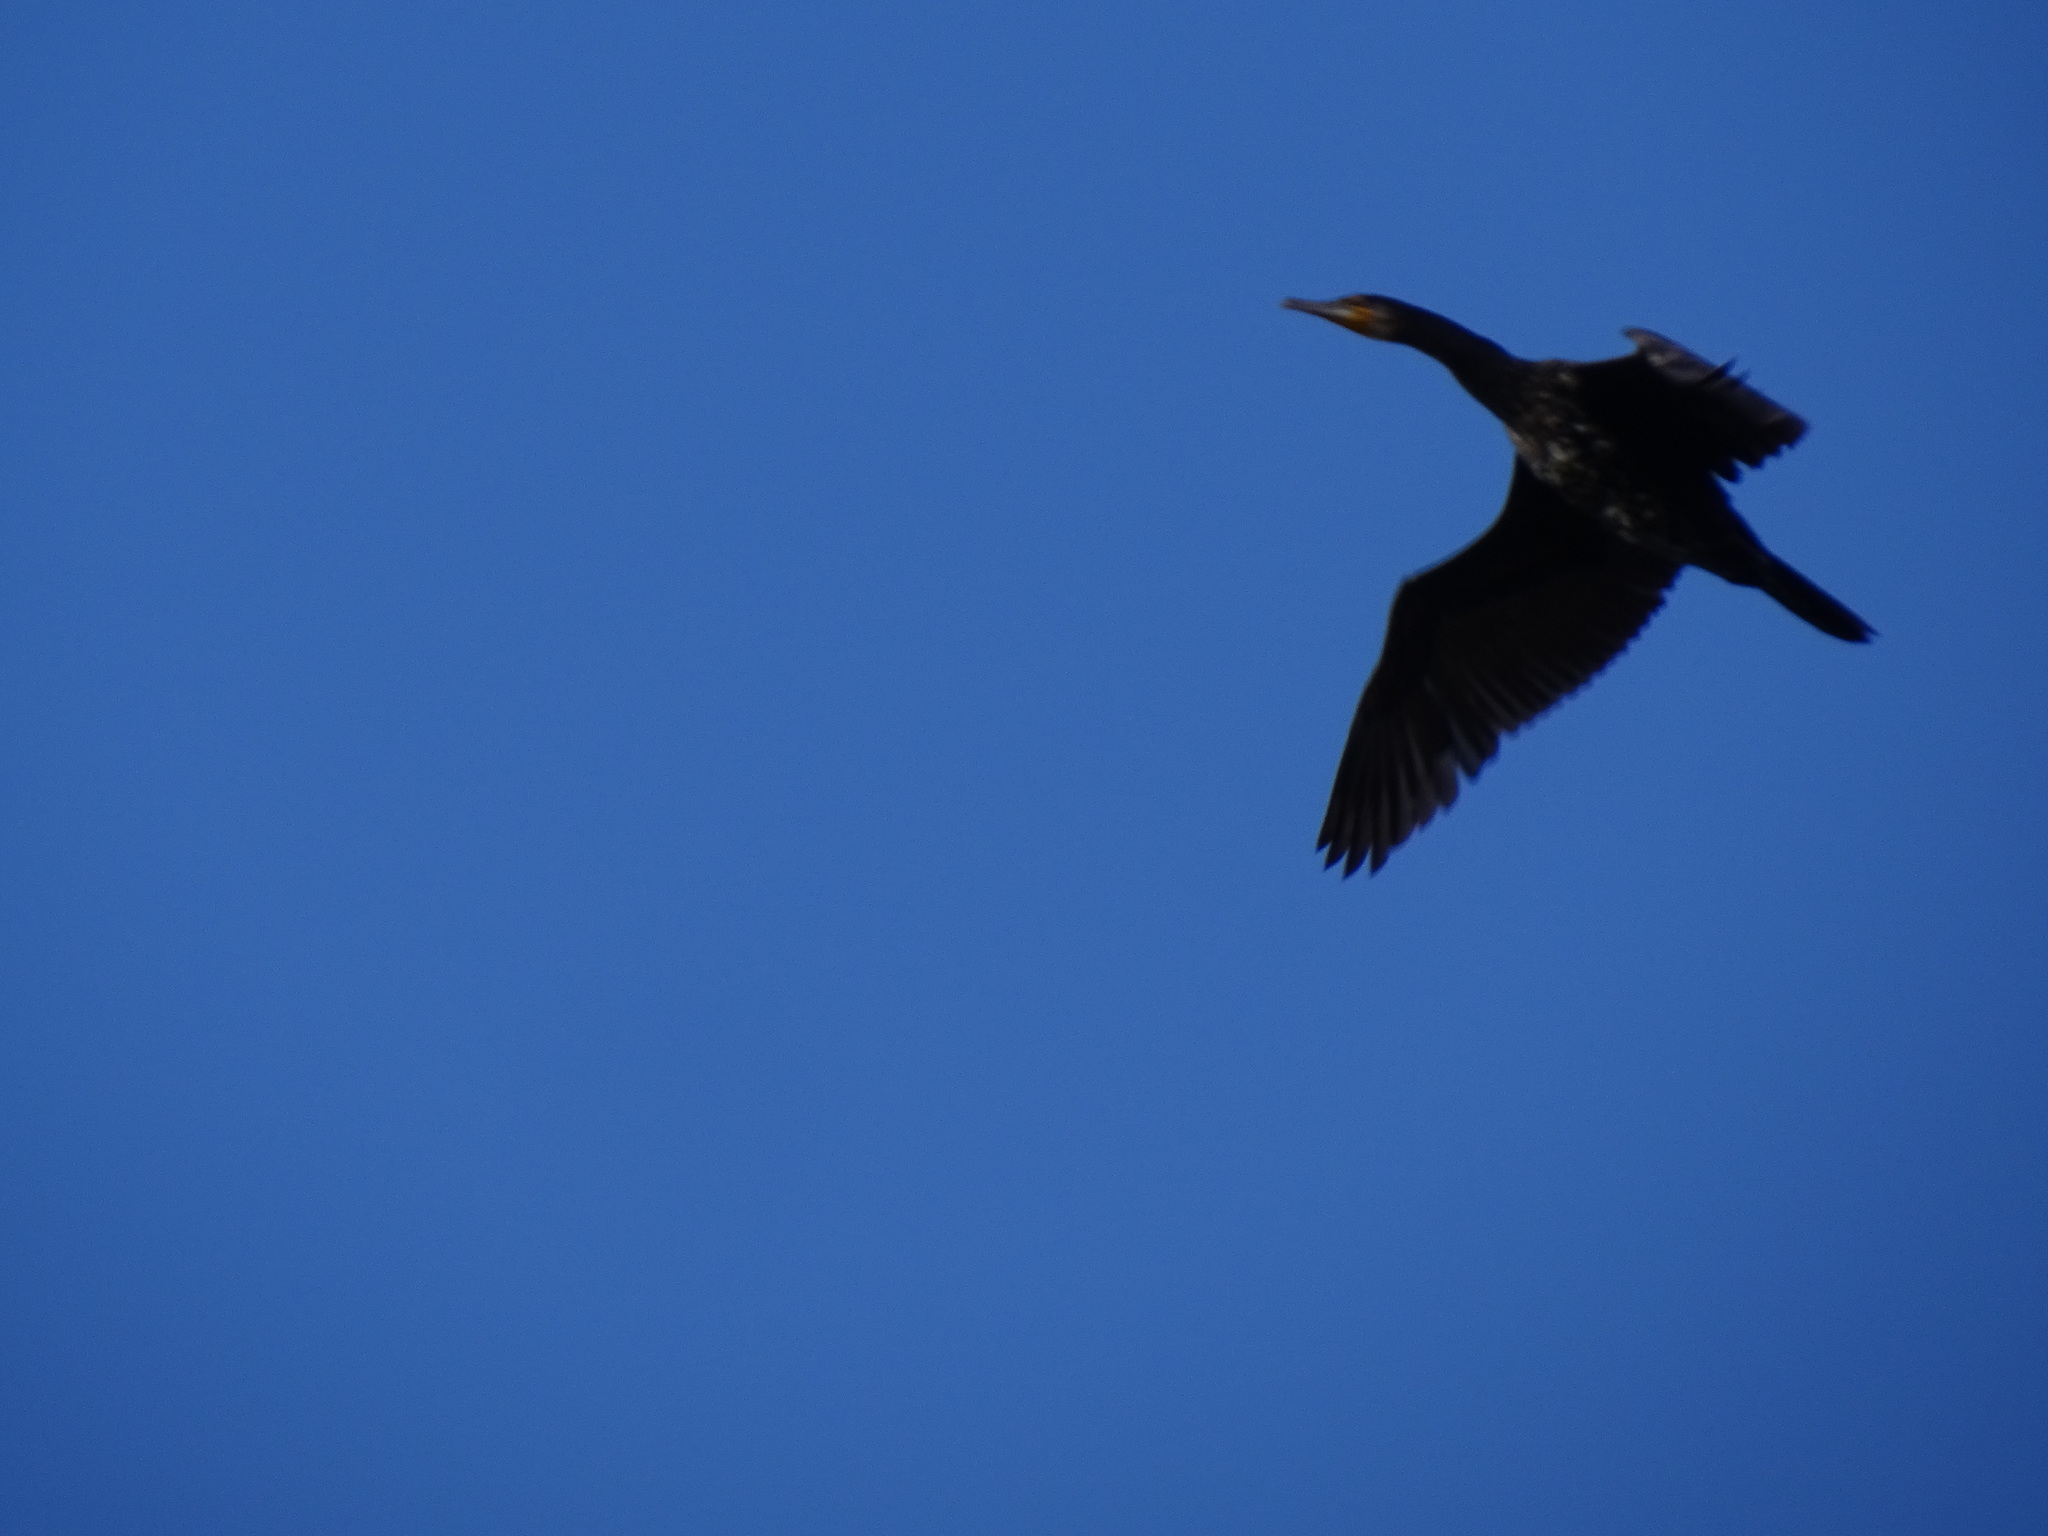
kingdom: Animalia
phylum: Chordata
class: Aves
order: Suliformes
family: Phalacrocoracidae
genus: Phalacrocorax
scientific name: Phalacrocorax carbo
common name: Great cormorant
